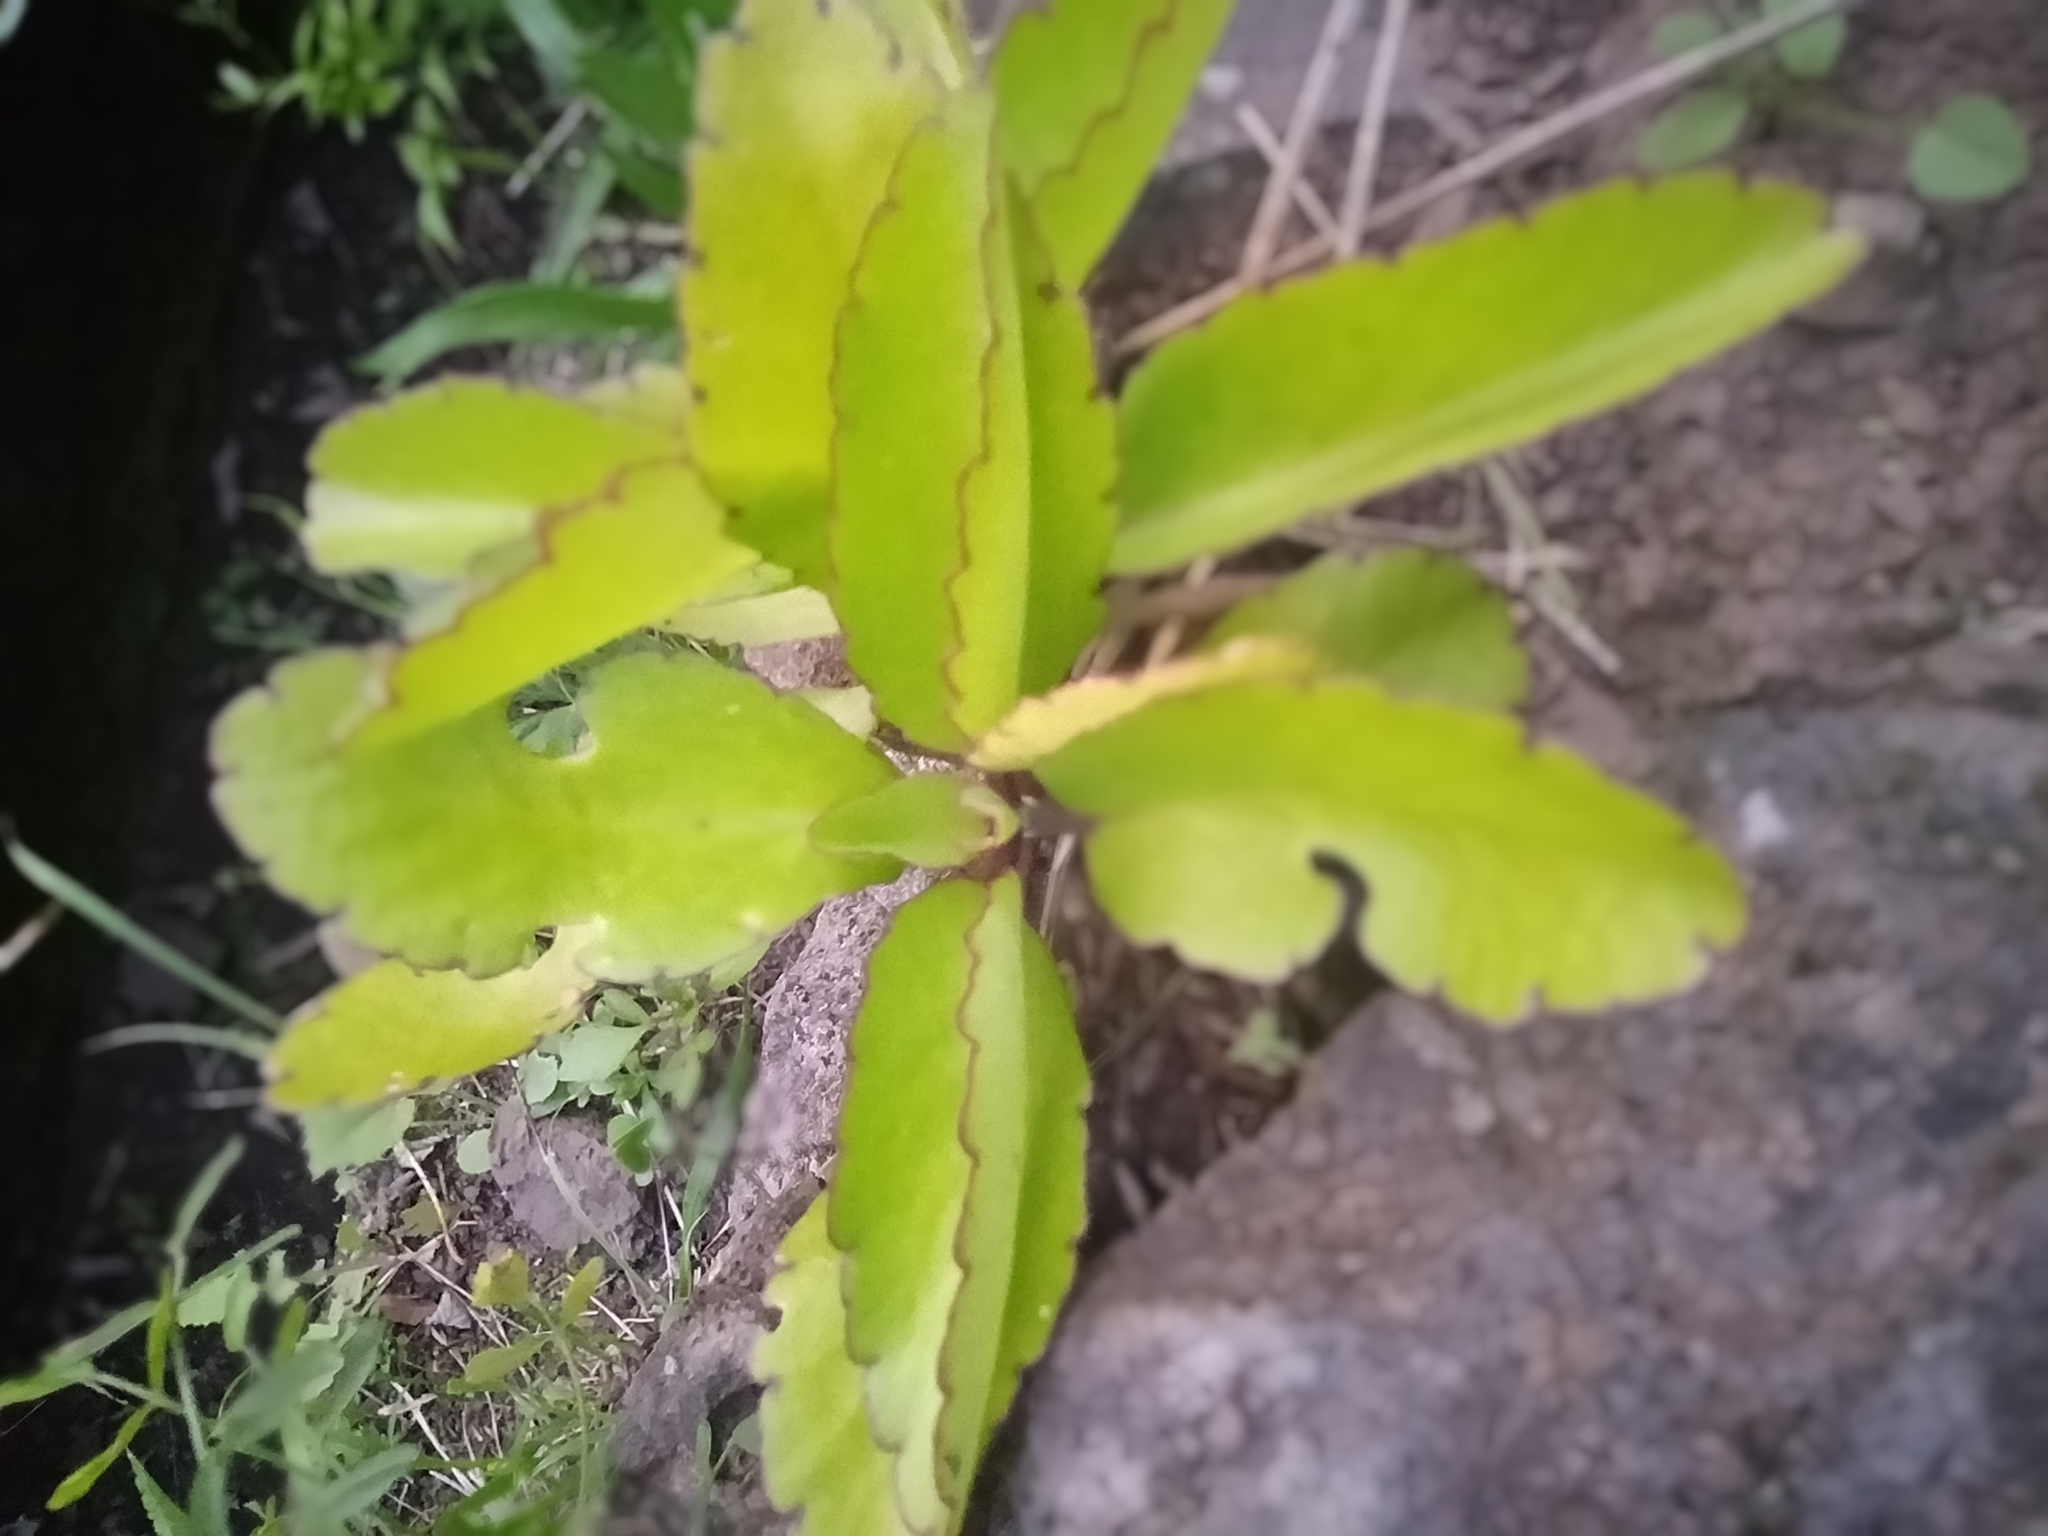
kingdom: Plantae
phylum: Tracheophyta
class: Magnoliopsida
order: Saxifragales
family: Crassulaceae
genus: Kalanchoe
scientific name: Kalanchoe pinnata
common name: Cathedral bells
